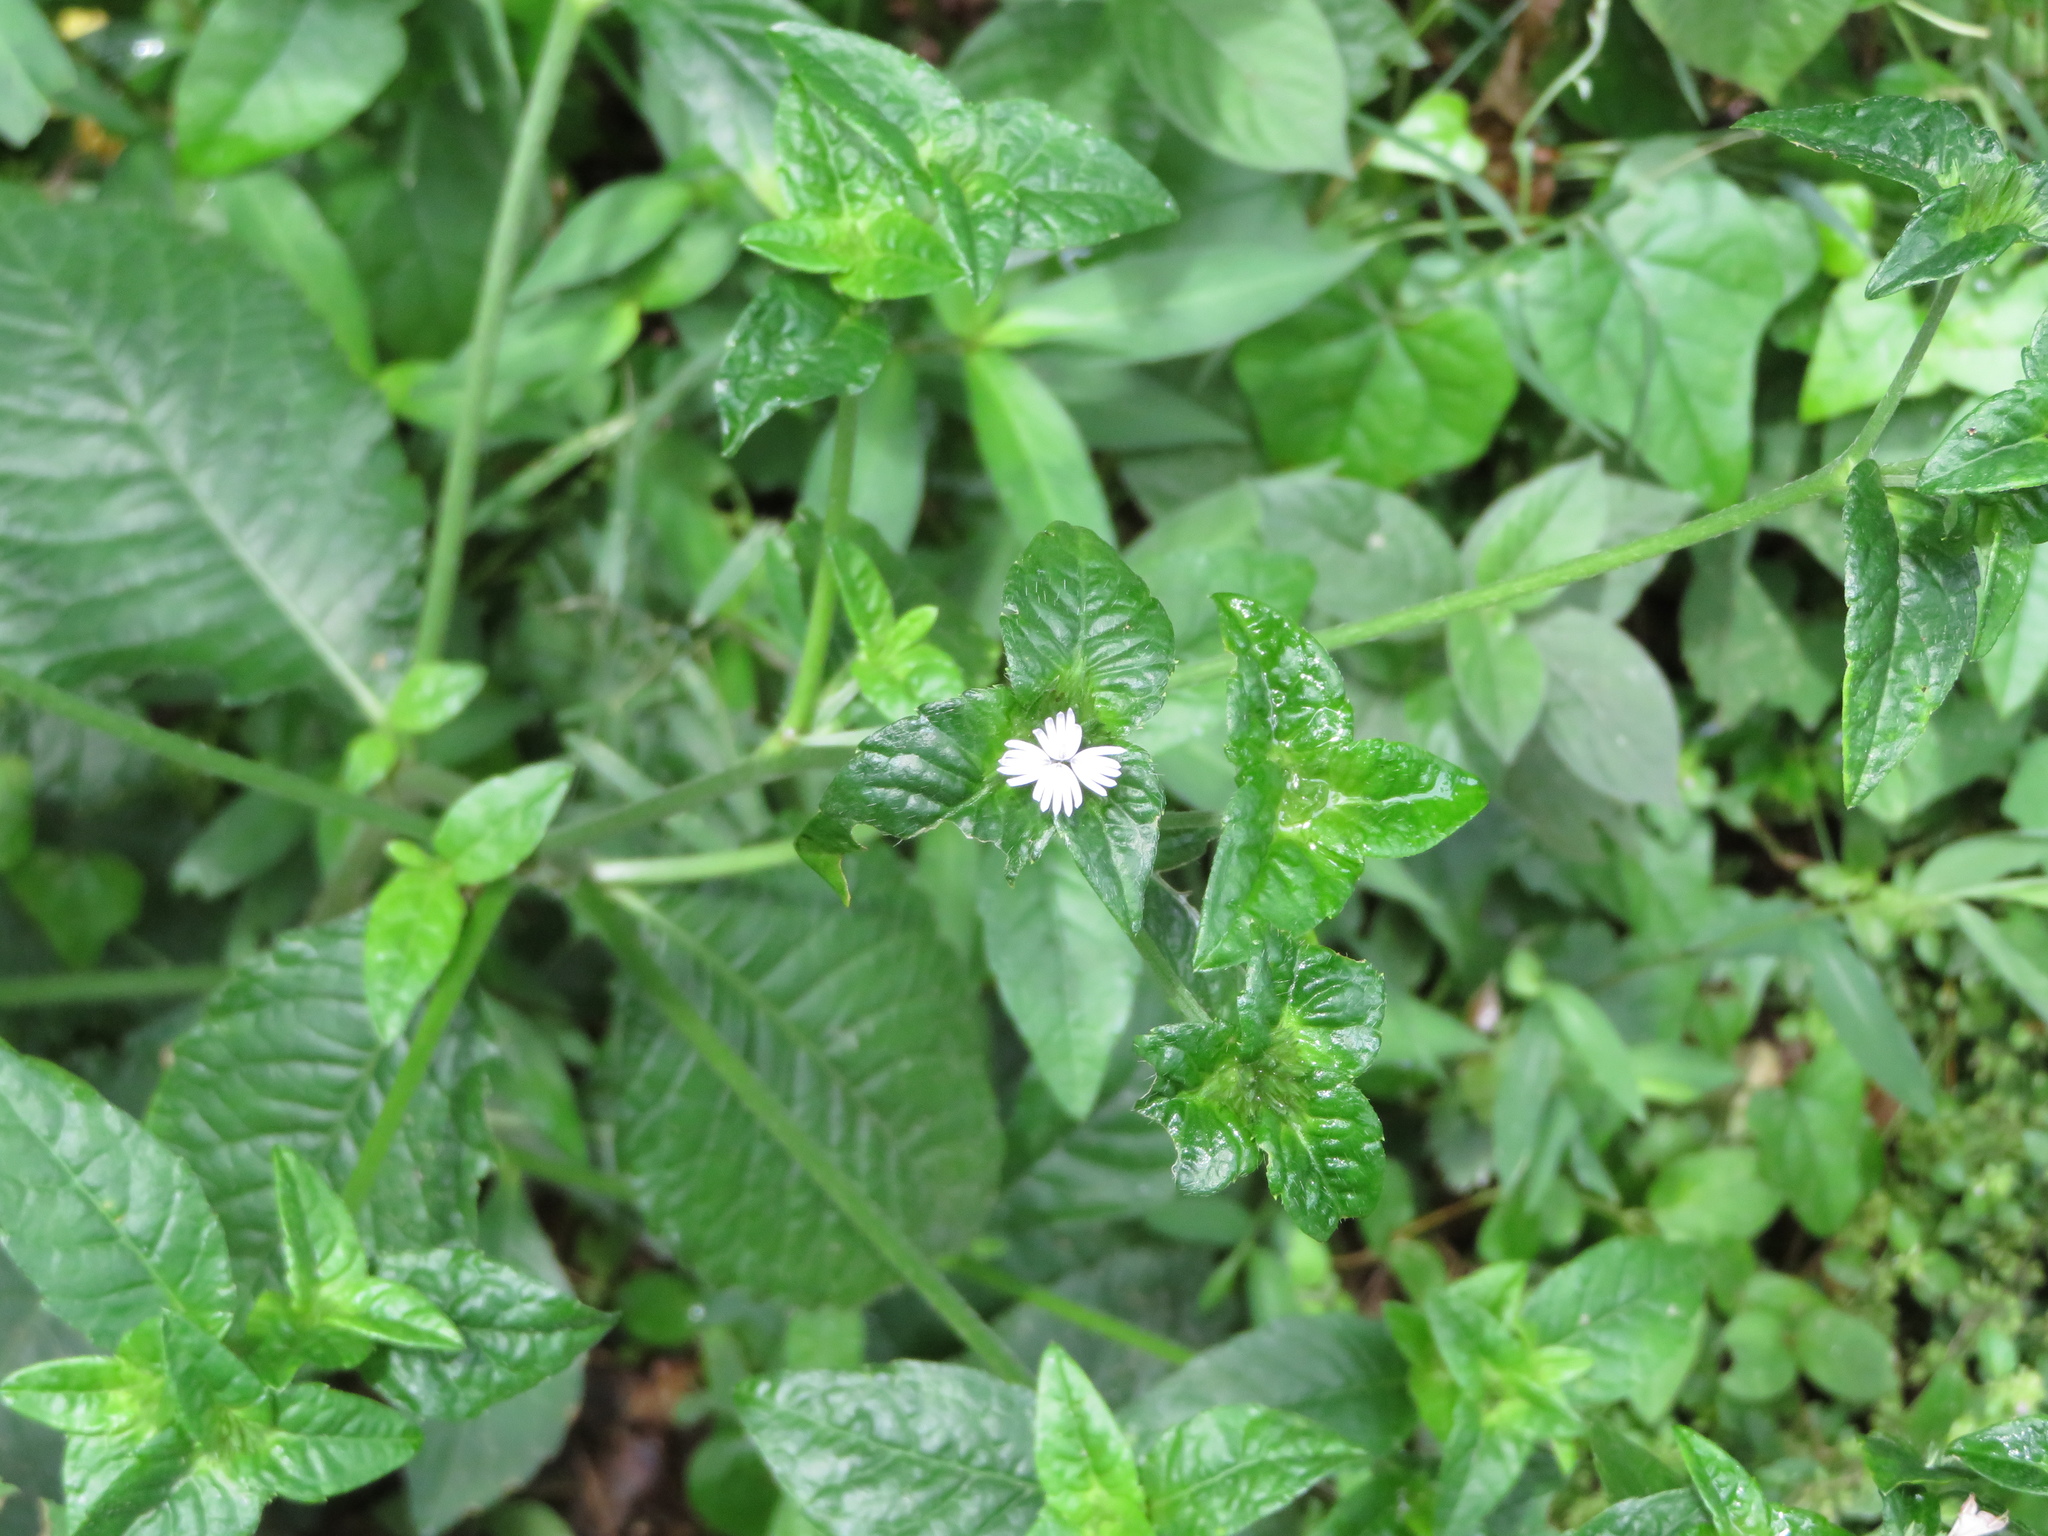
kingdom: Plantae
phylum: Tracheophyta
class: Magnoliopsida
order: Asterales
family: Asteraceae
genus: Elephantopus
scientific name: Elephantopus carolinianus
